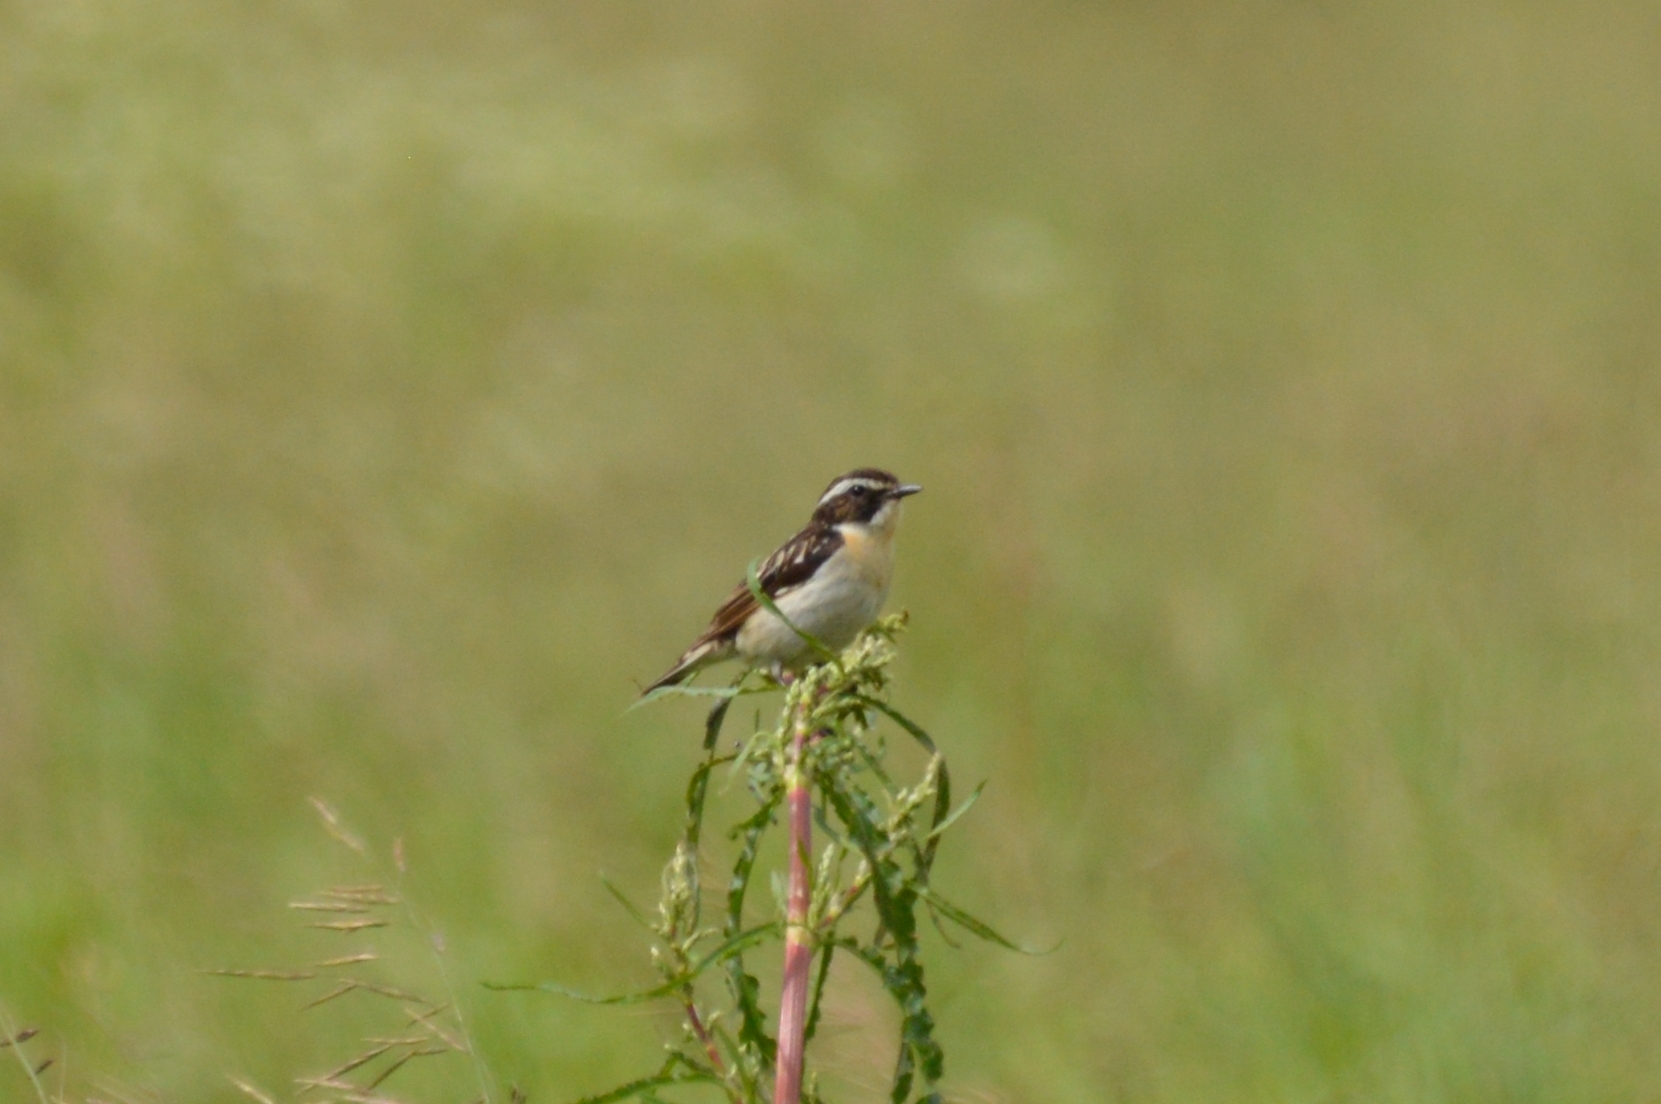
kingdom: Animalia
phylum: Chordata
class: Aves
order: Passeriformes
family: Muscicapidae
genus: Saxicola
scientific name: Saxicola rubetra
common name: Whinchat
